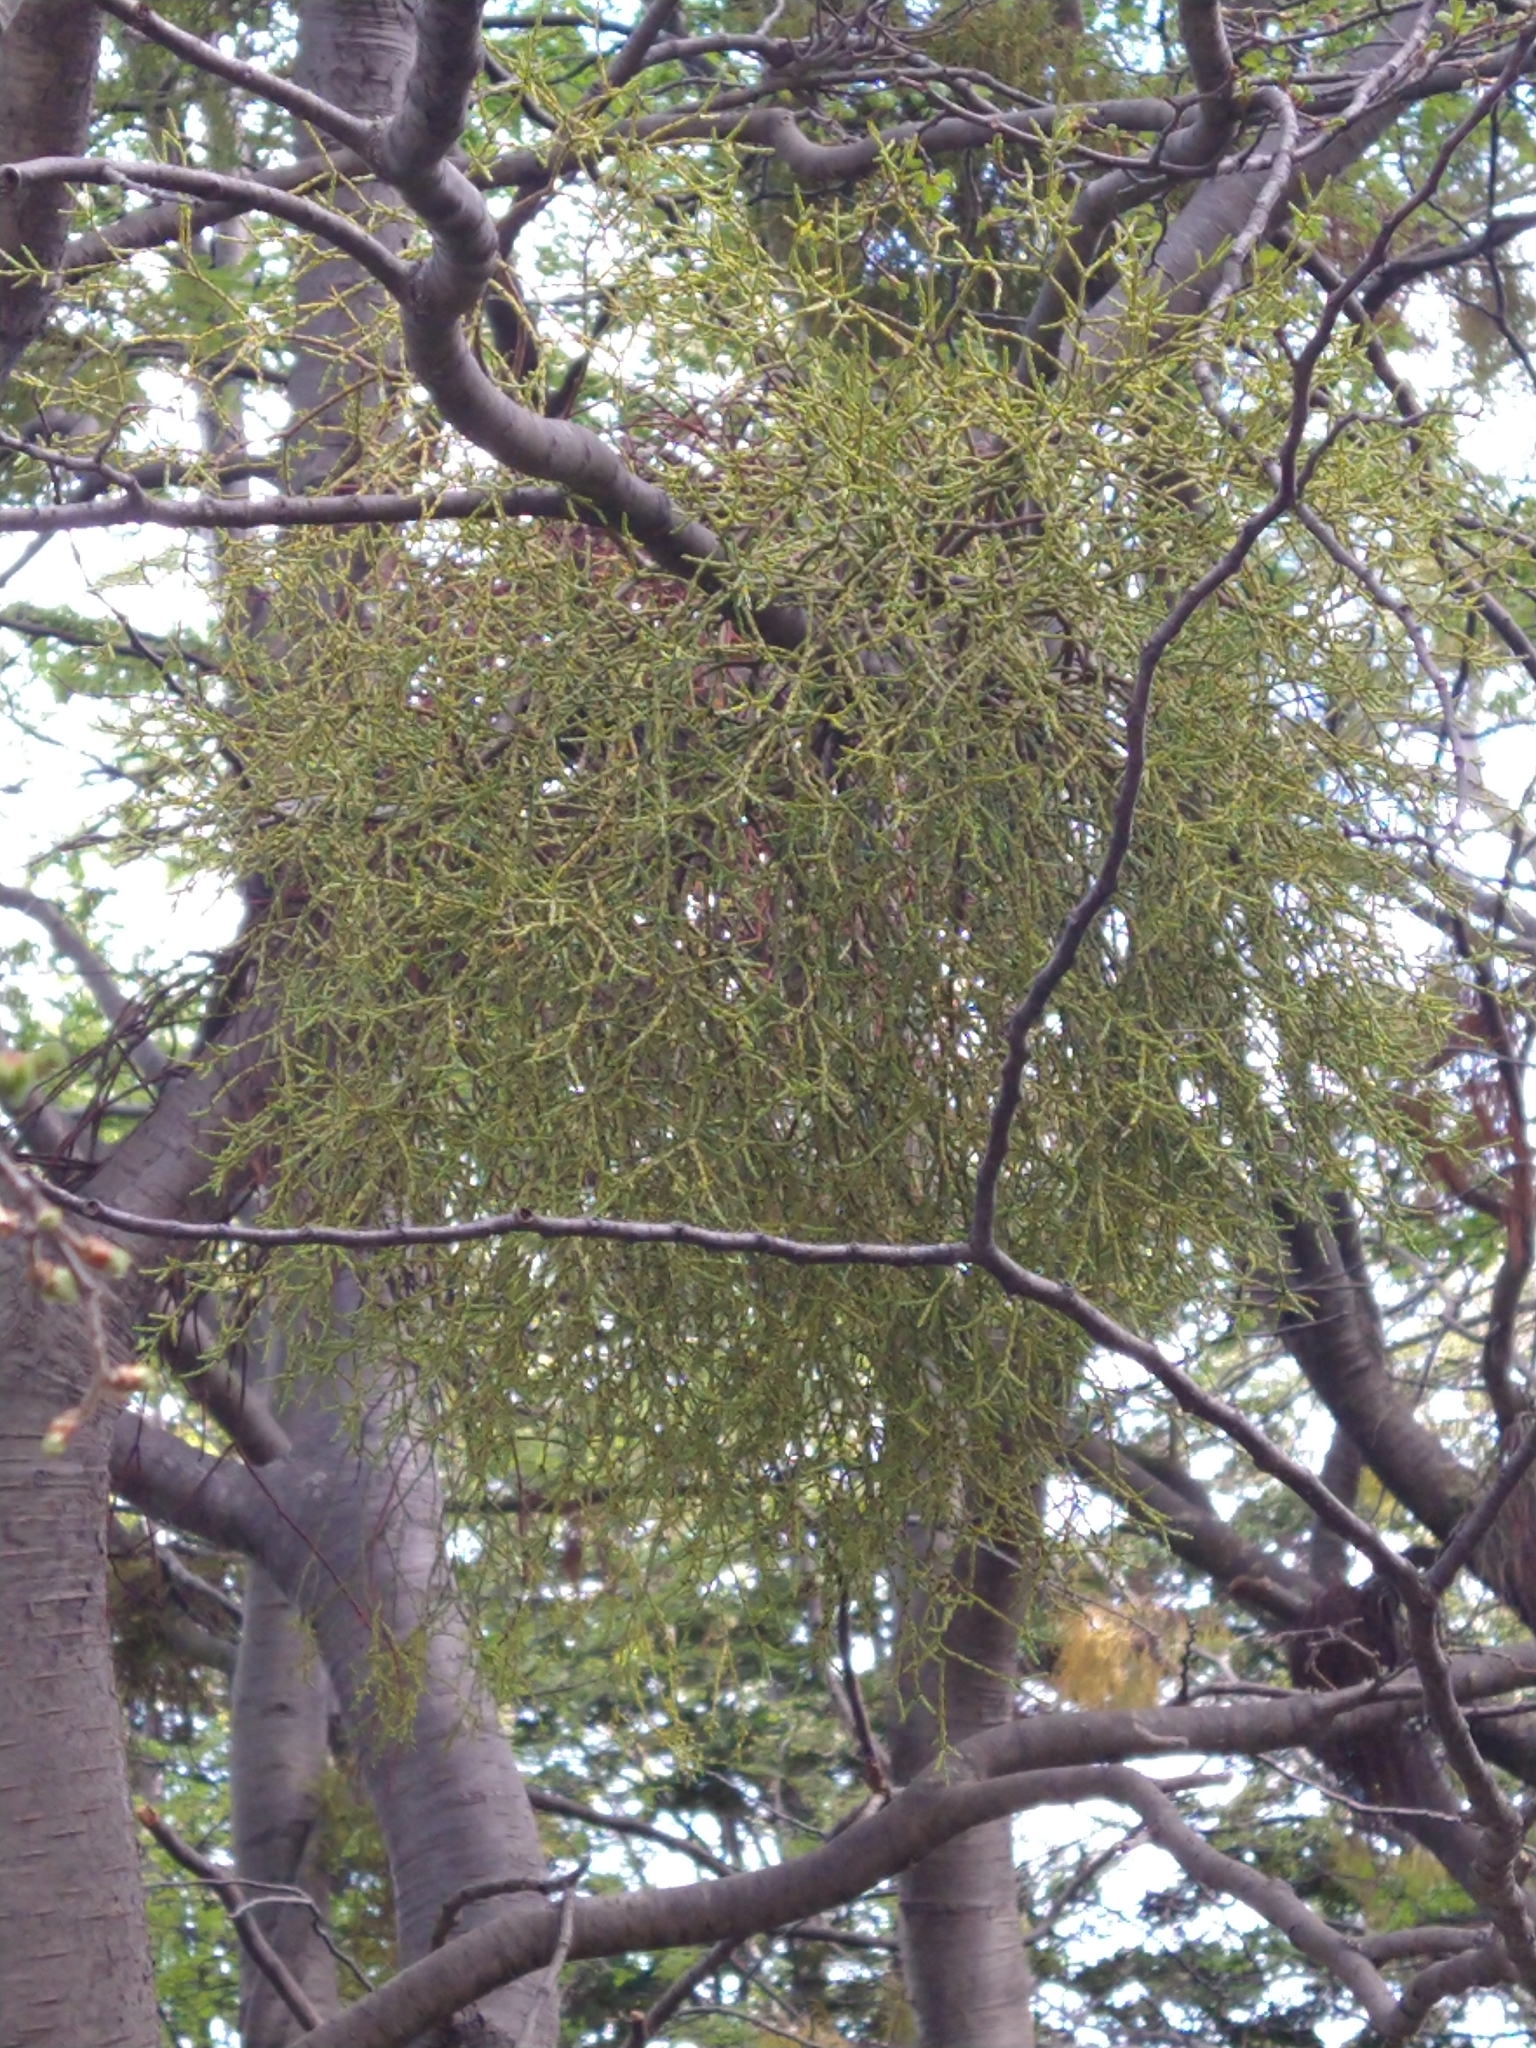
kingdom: Plantae
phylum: Tracheophyta
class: Magnoliopsida
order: Santalales
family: Misodendraceae
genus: Misodendrum
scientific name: Misodendrum punctulatum
